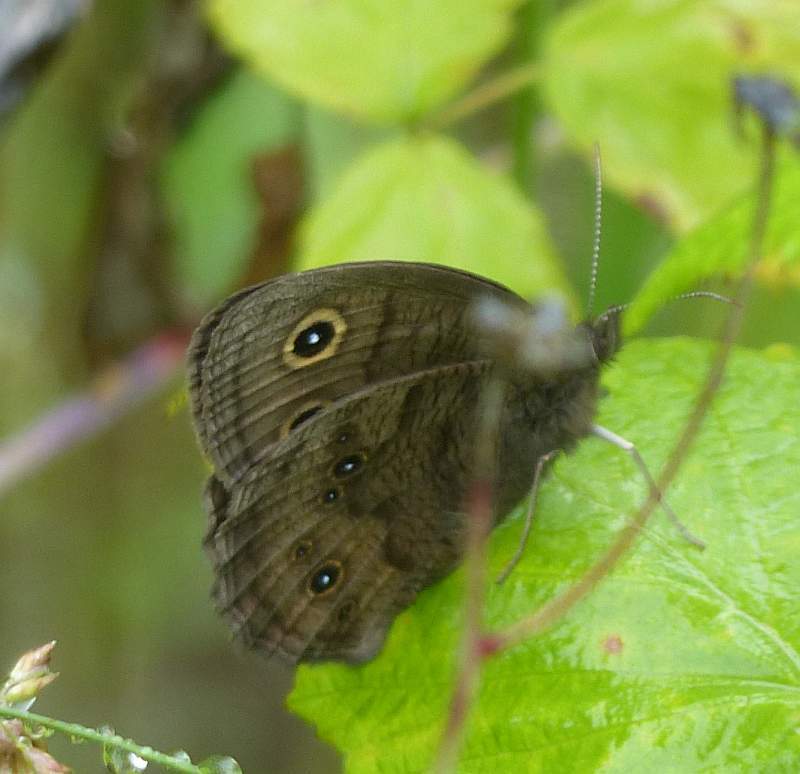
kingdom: Animalia
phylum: Arthropoda
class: Insecta
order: Lepidoptera
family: Nymphalidae
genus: Cercyonis
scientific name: Cercyonis pegala
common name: Common wood-nymph
